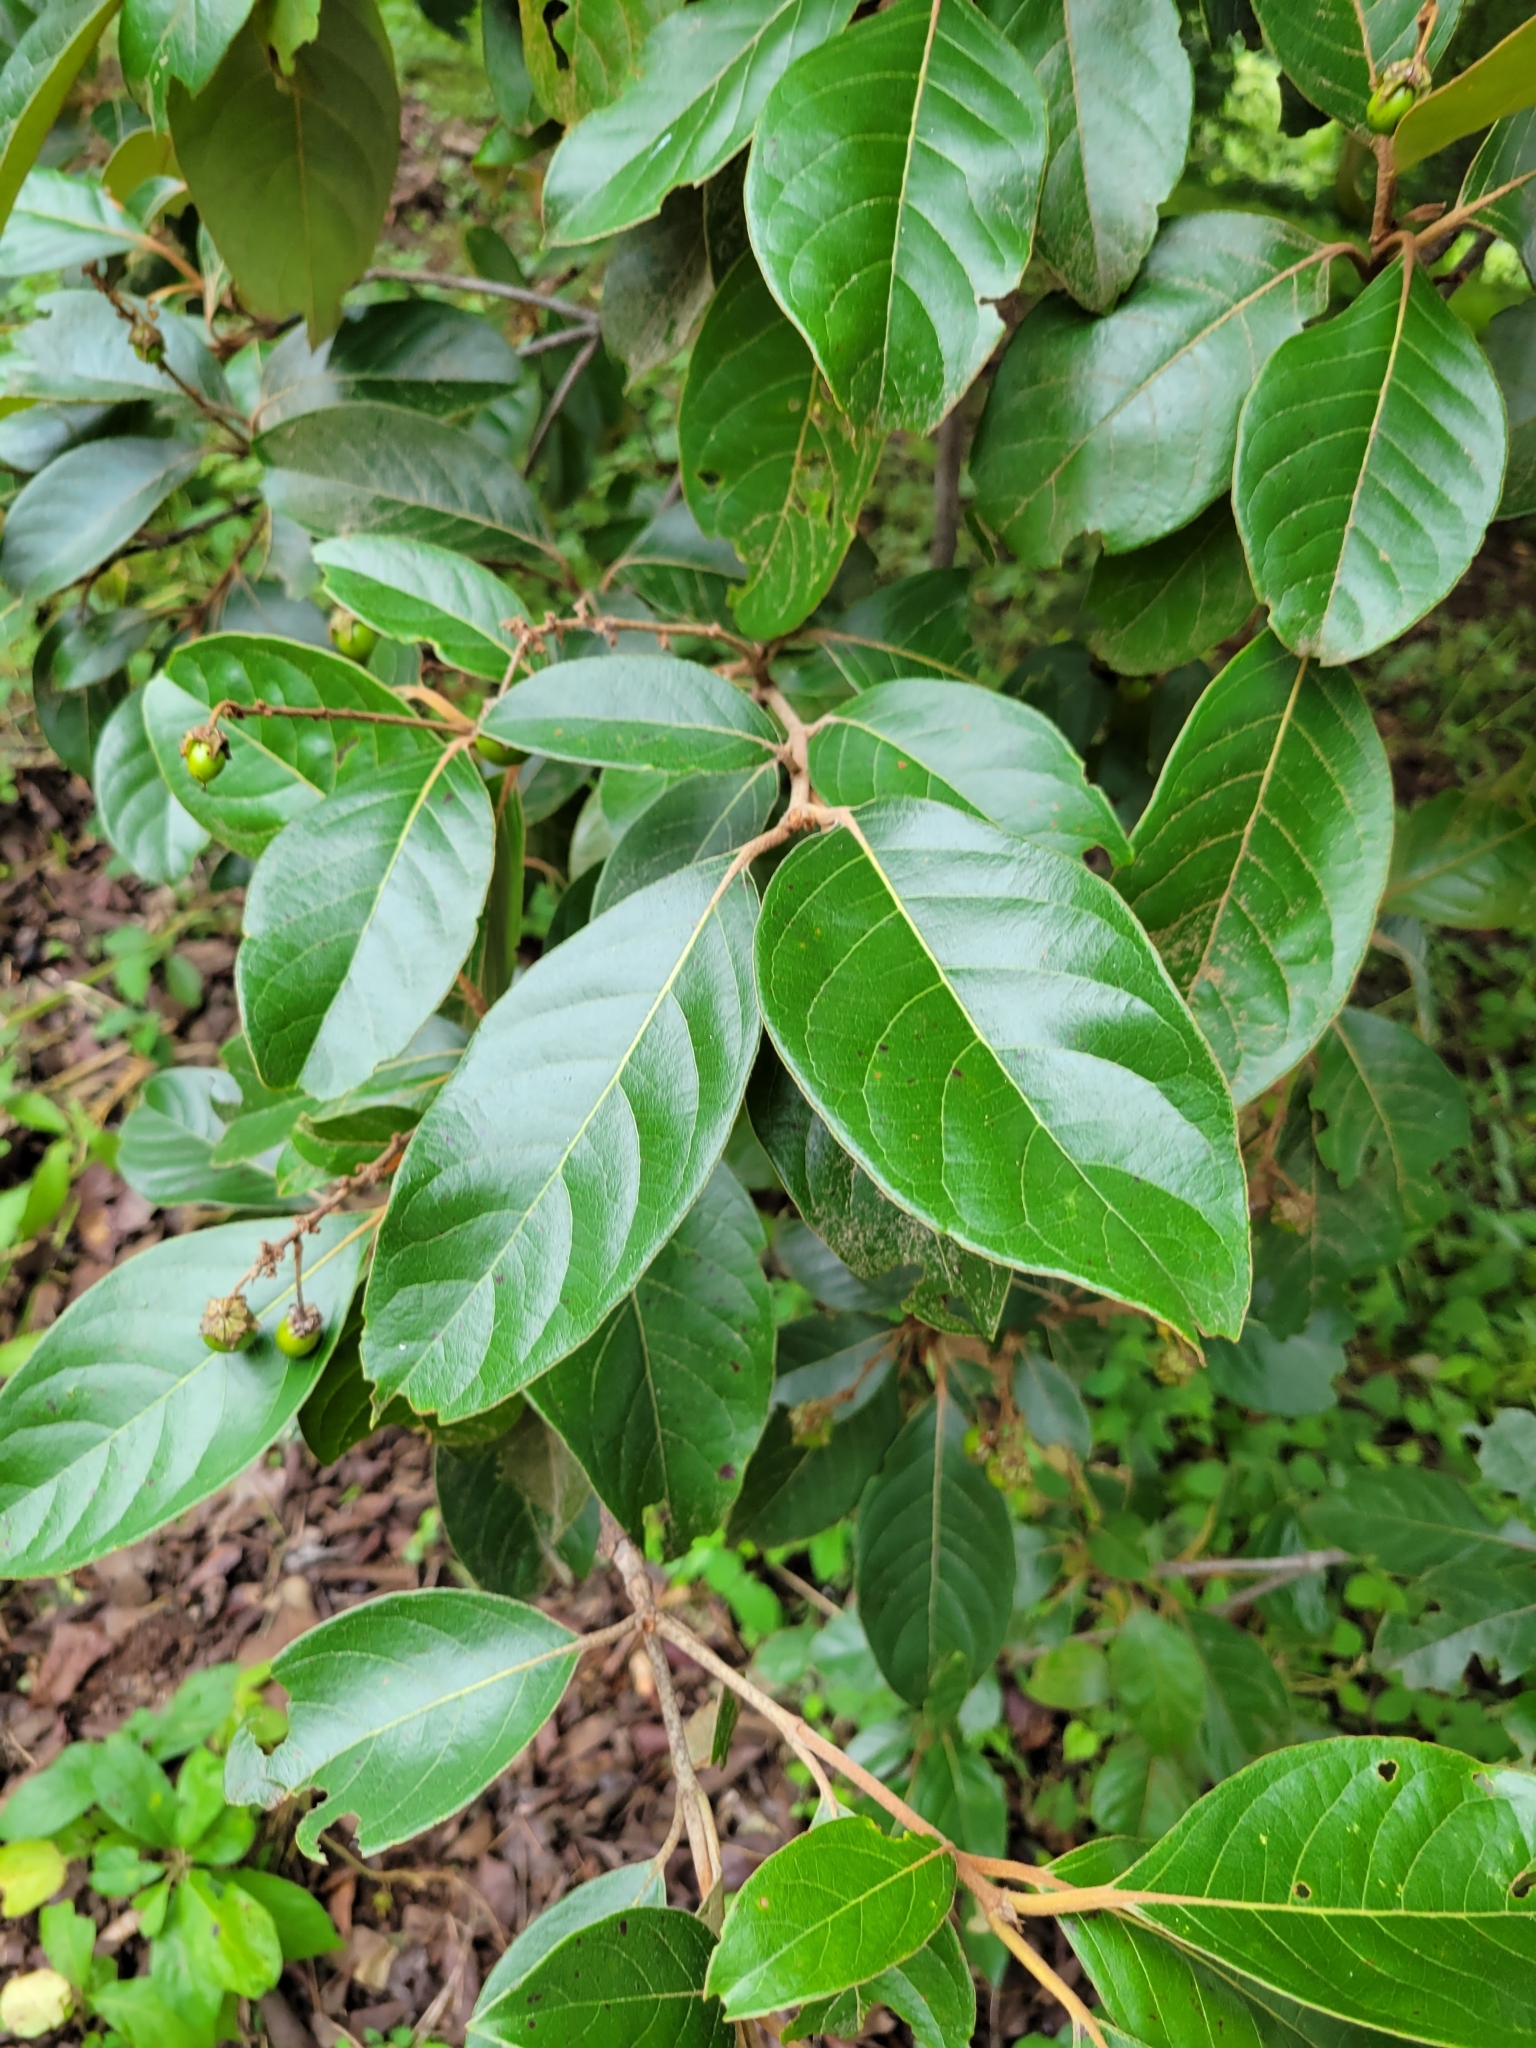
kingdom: Plantae
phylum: Tracheophyta
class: Magnoliopsida
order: Malpighiales
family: Malpighiaceae
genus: Byrsonima
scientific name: Byrsonima crassifolia
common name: Golden spoon
